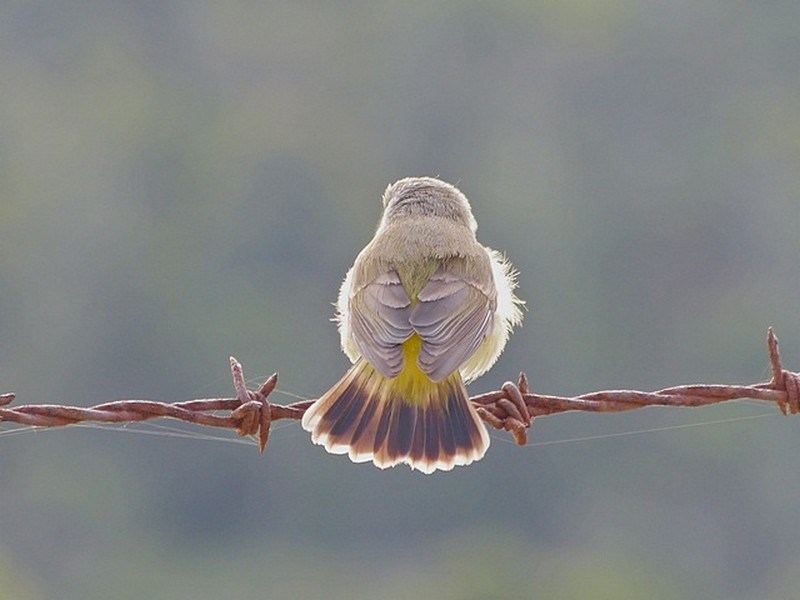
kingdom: Animalia
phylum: Chordata
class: Aves
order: Passeriformes
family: Acanthizidae
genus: Acanthiza
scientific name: Acanthiza chrysorrhoa
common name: Yellow-rumped thornbill
